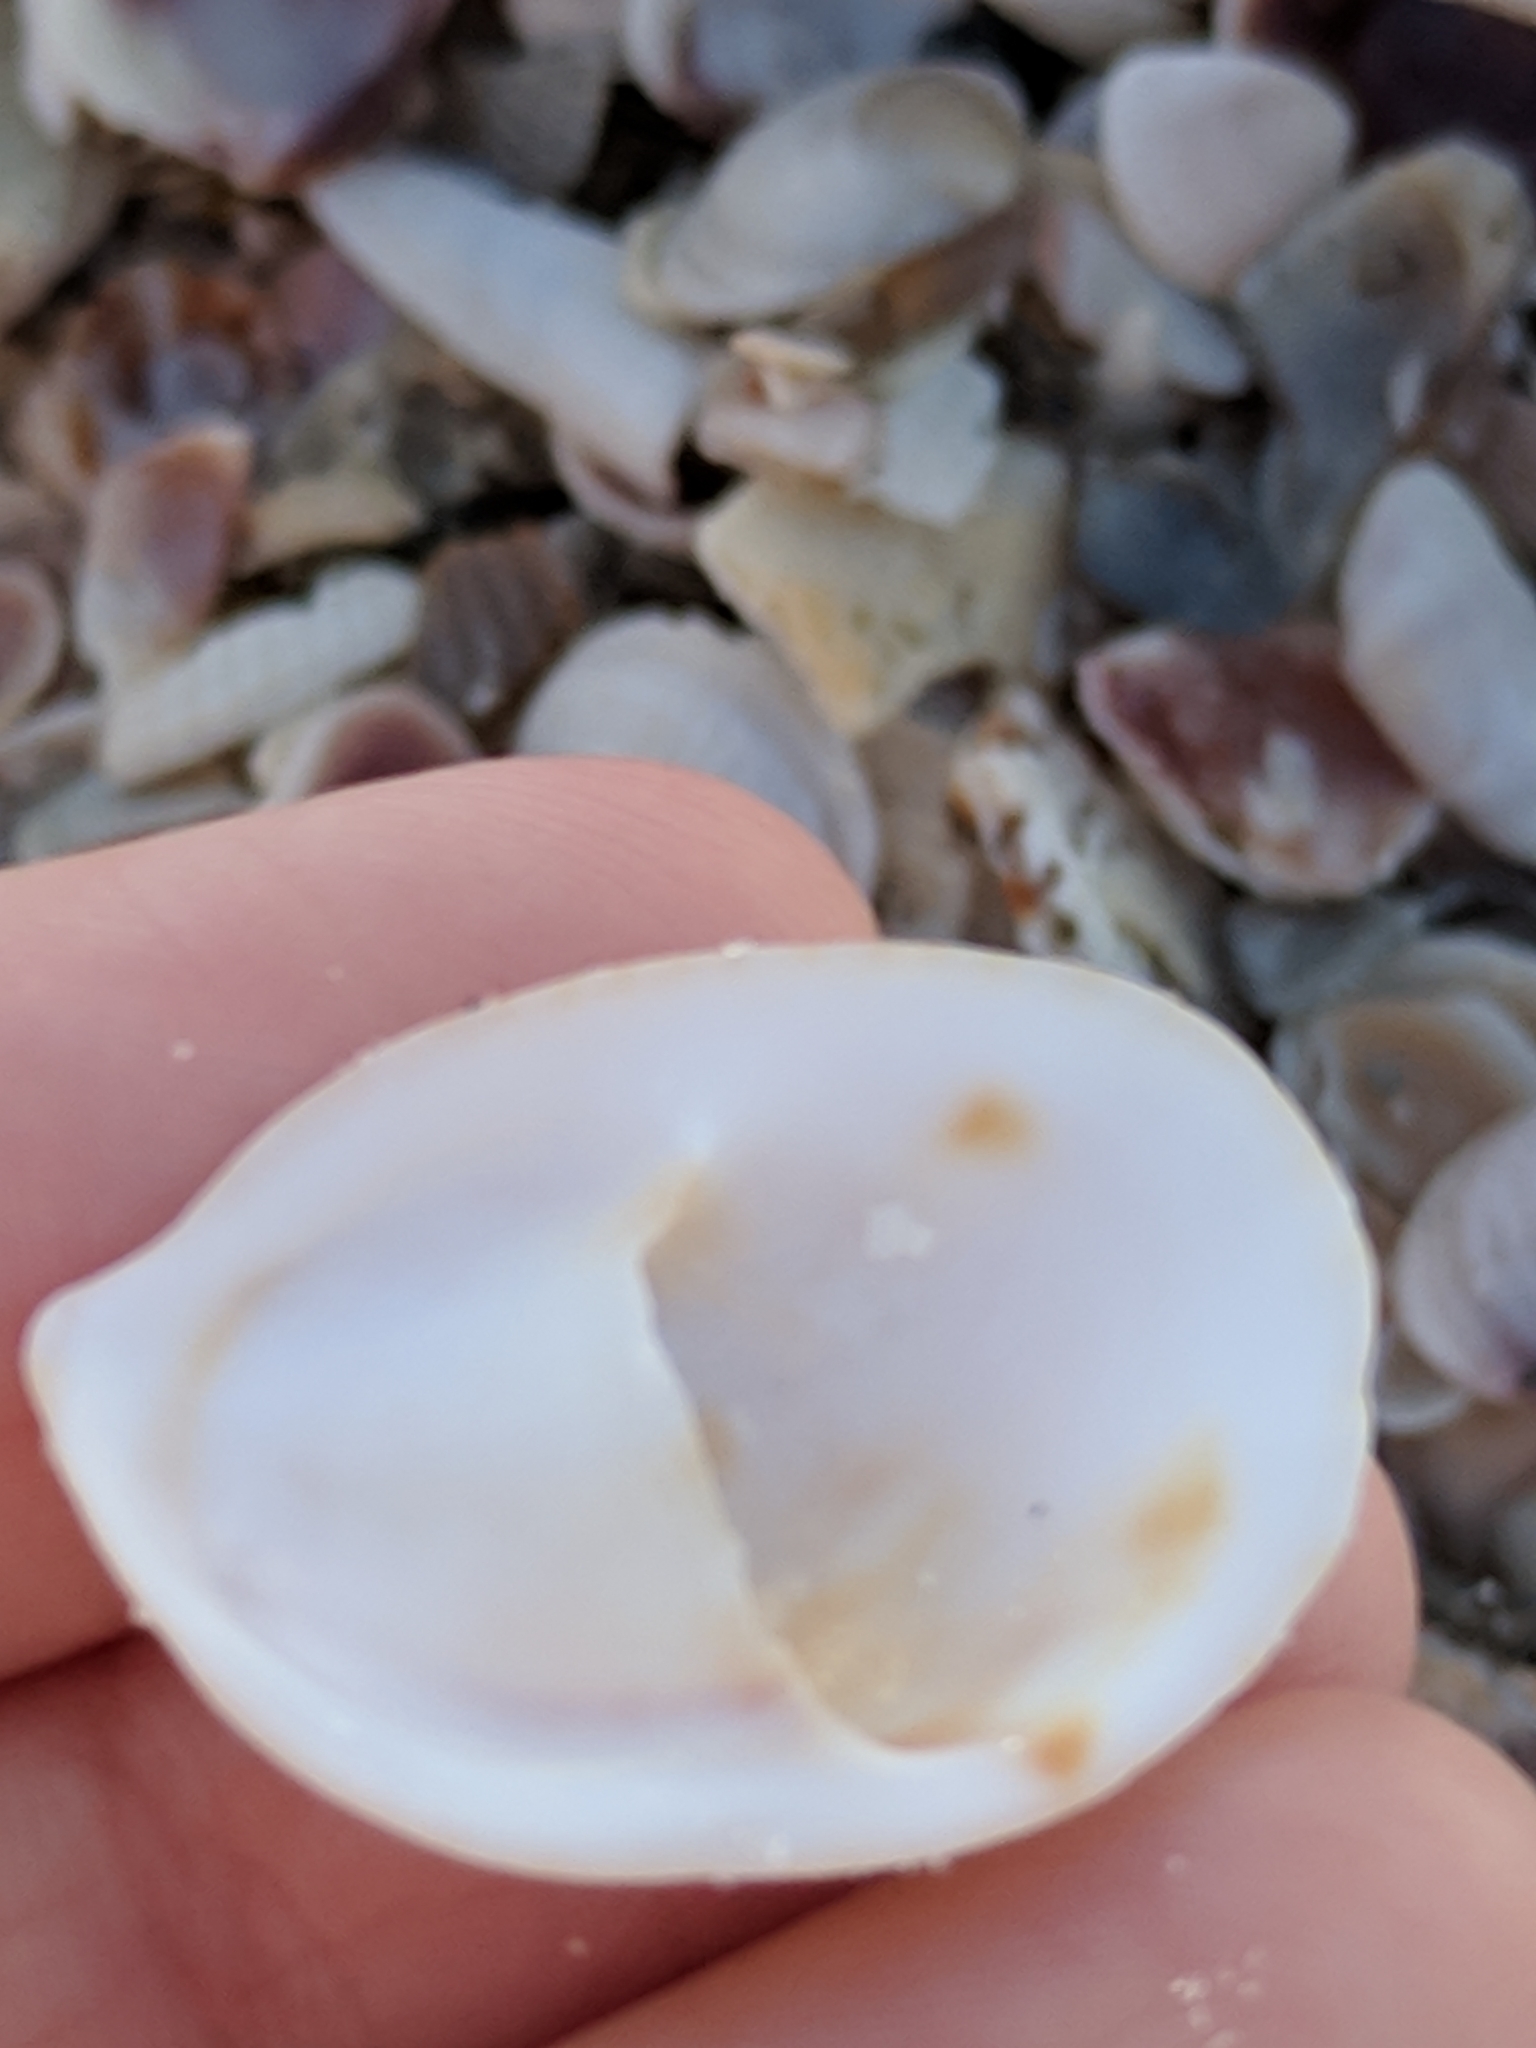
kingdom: Animalia
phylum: Mollusca
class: Gastropoda
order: Littorinimorpha
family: Calyptraeidae
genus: Crepidula
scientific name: Crepidula fornicata
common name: Slipper limpet
